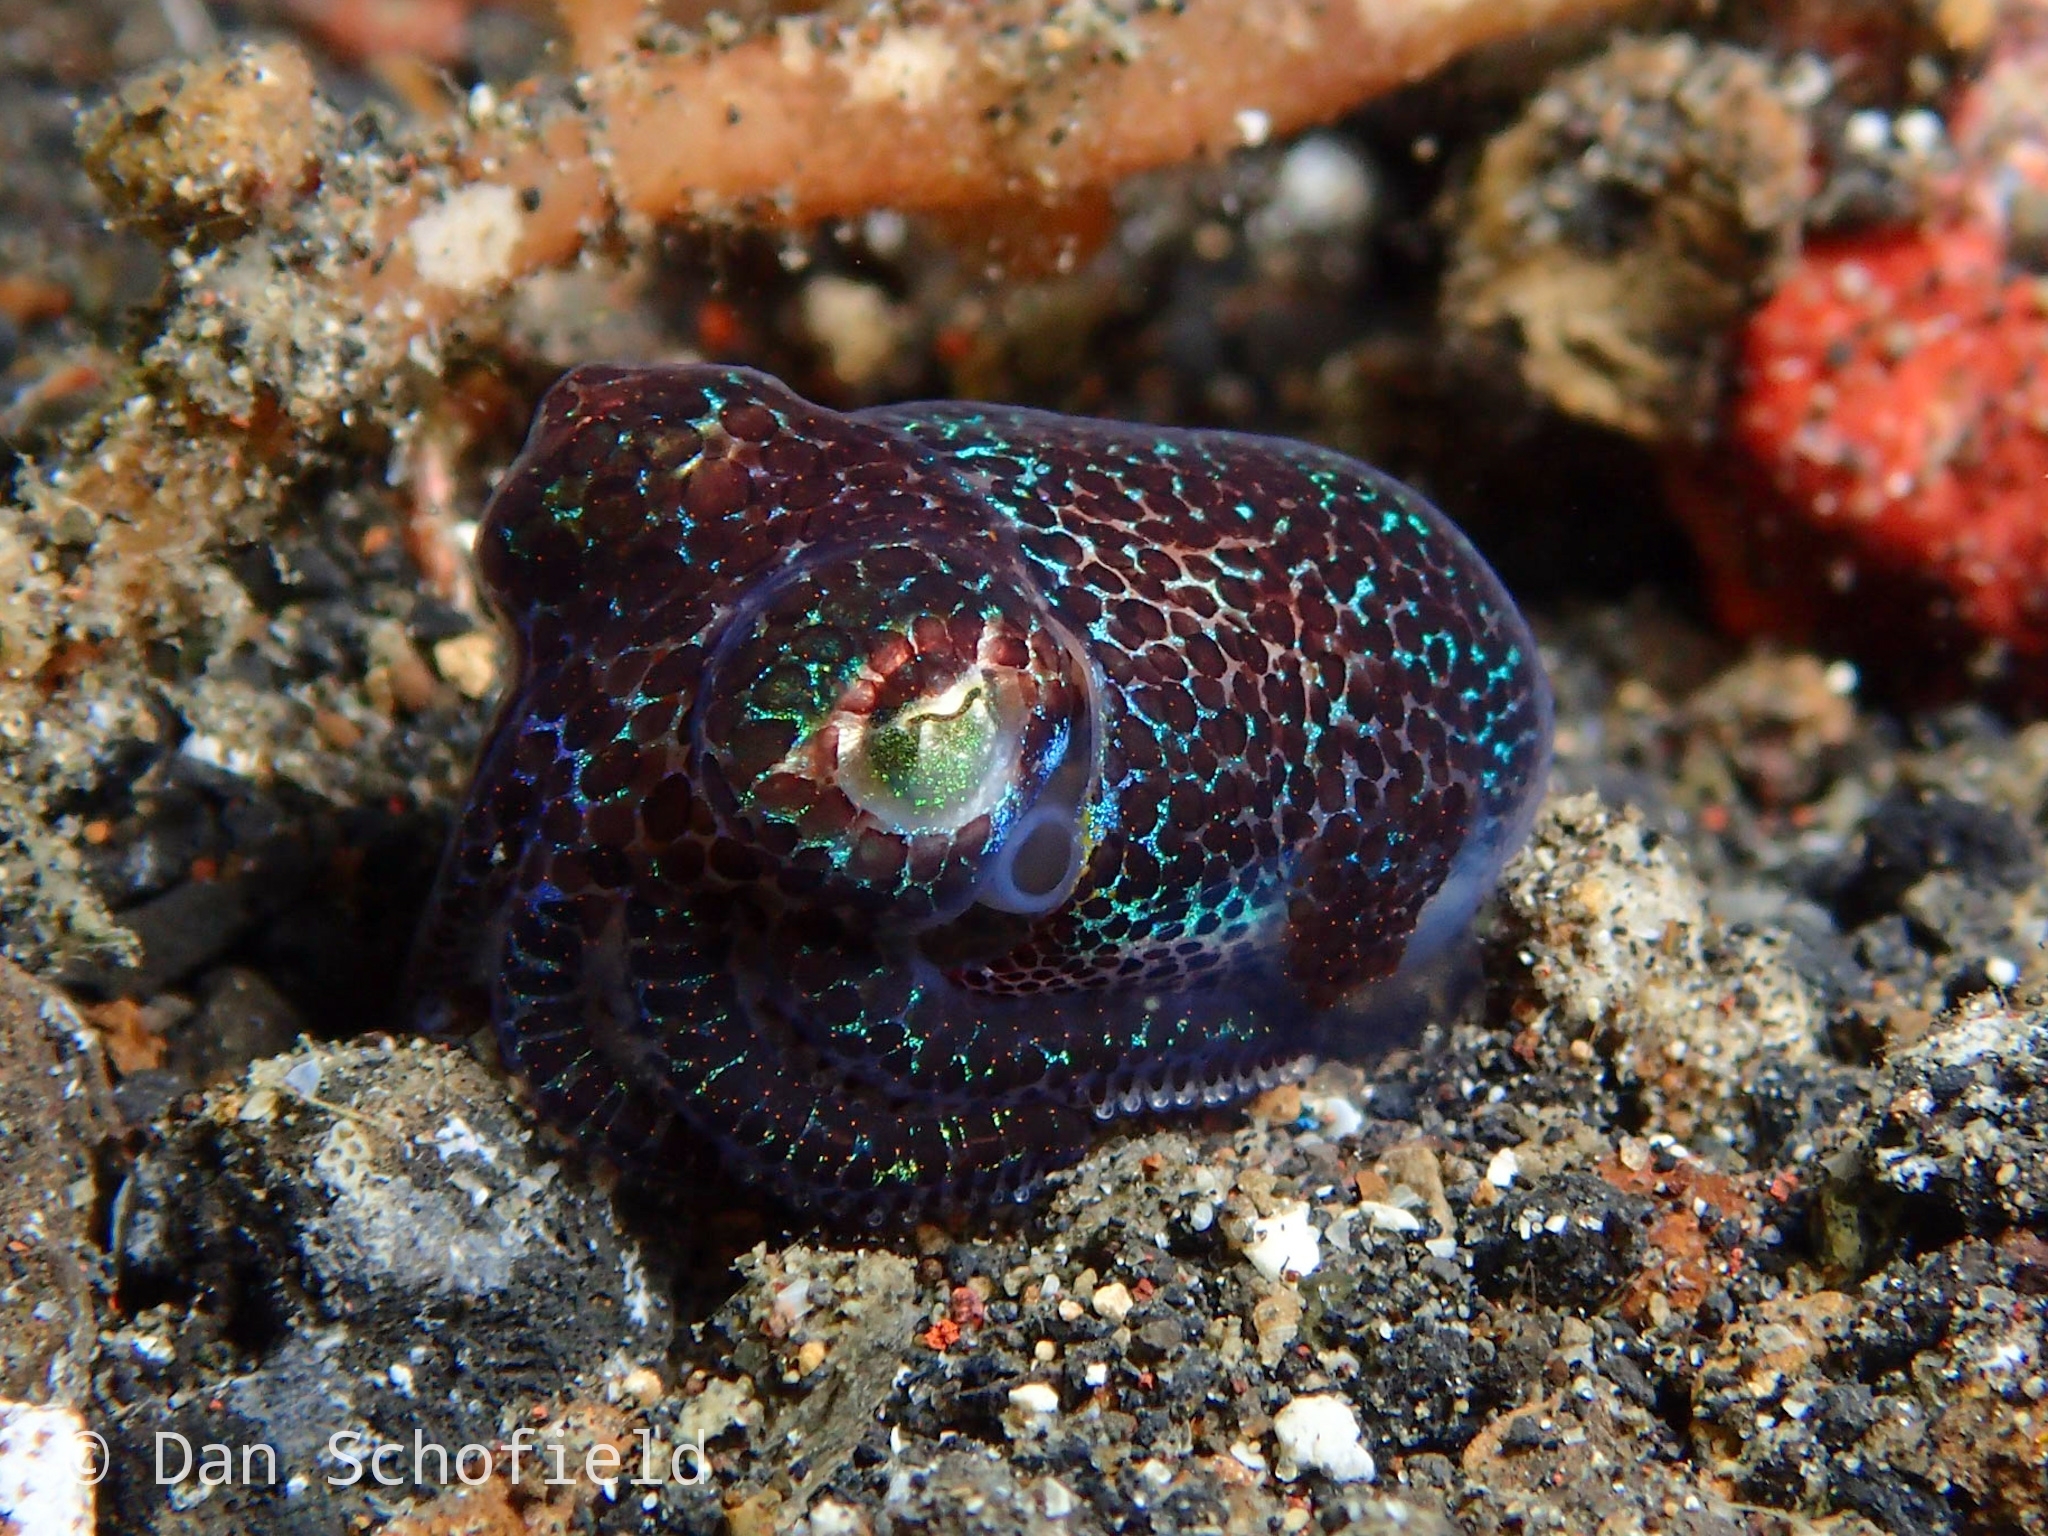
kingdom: Animalia
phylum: Mollusca
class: Cephalopoda
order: Sepiida
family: Sepiolidae
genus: Euprymna
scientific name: Euprymna berryi
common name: Humming-bird bobtail squid
